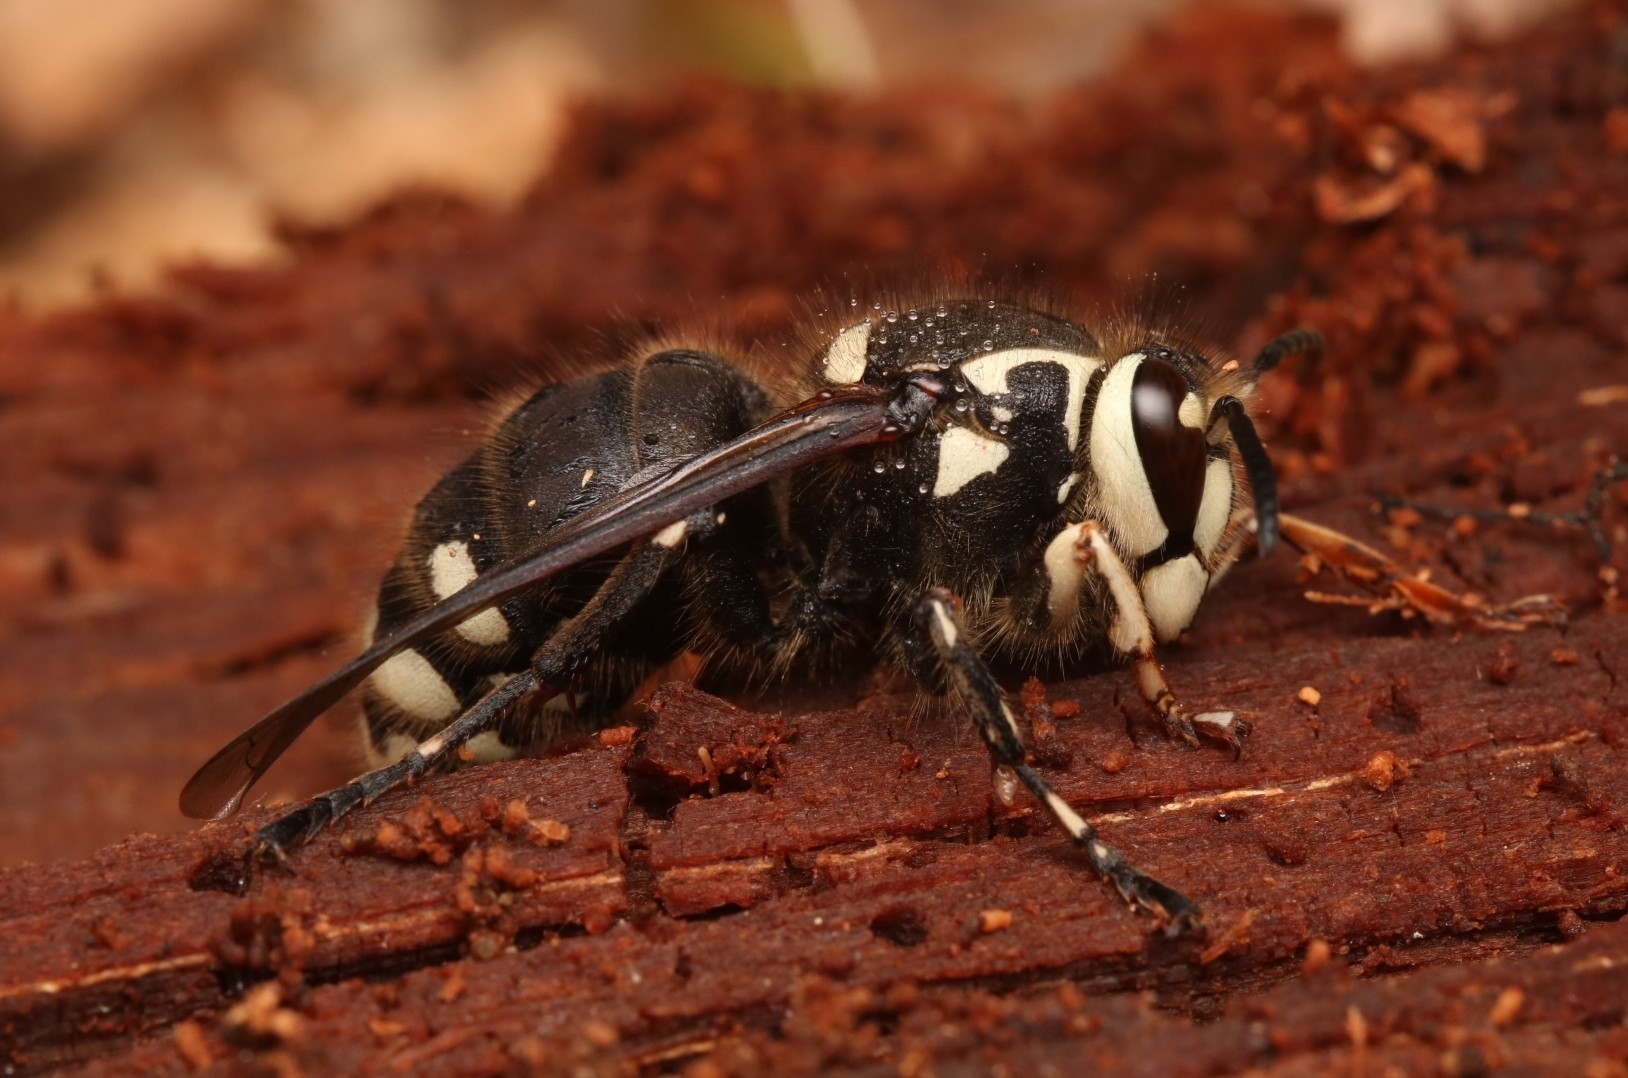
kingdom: Animalia
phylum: Arthropoda
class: Insecta
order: Hymenoptera
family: Vespidae
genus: Dolichovespula
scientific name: Dolichovespula maculata
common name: Bald-faced hornet
